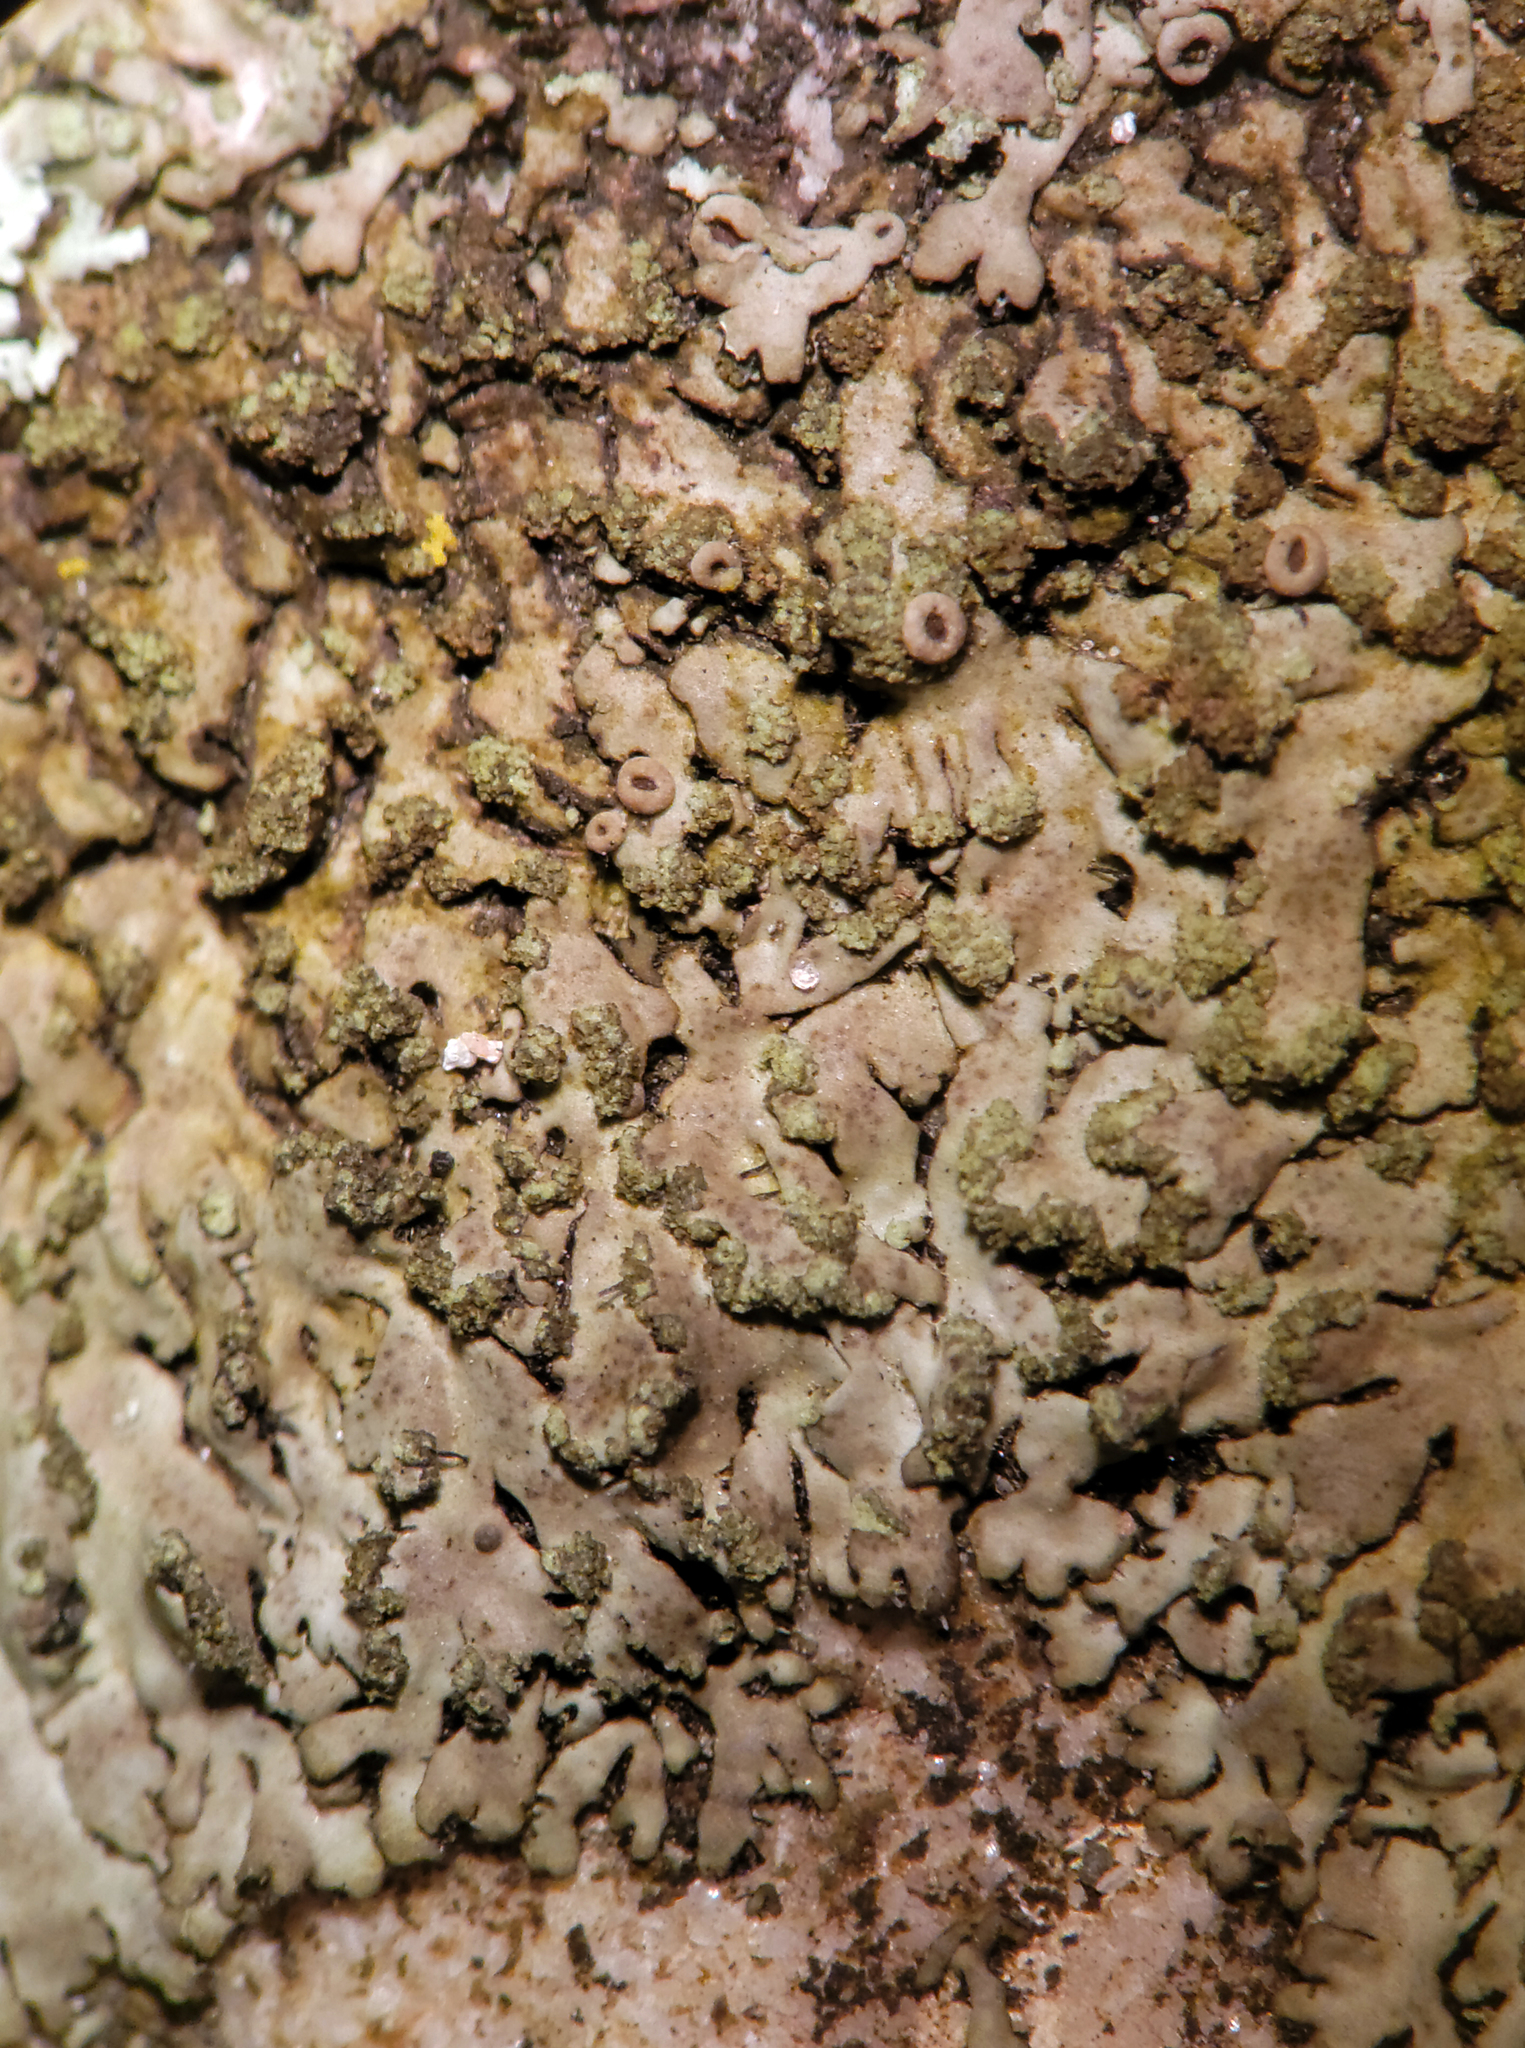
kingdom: Fungi
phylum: Ascomycota
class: Lecanoromycetes
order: Caliciales
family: Physciaceae
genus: Phaeophyscia
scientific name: Phaeophyscia adiastola
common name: Powder-tipped shadow lichen
